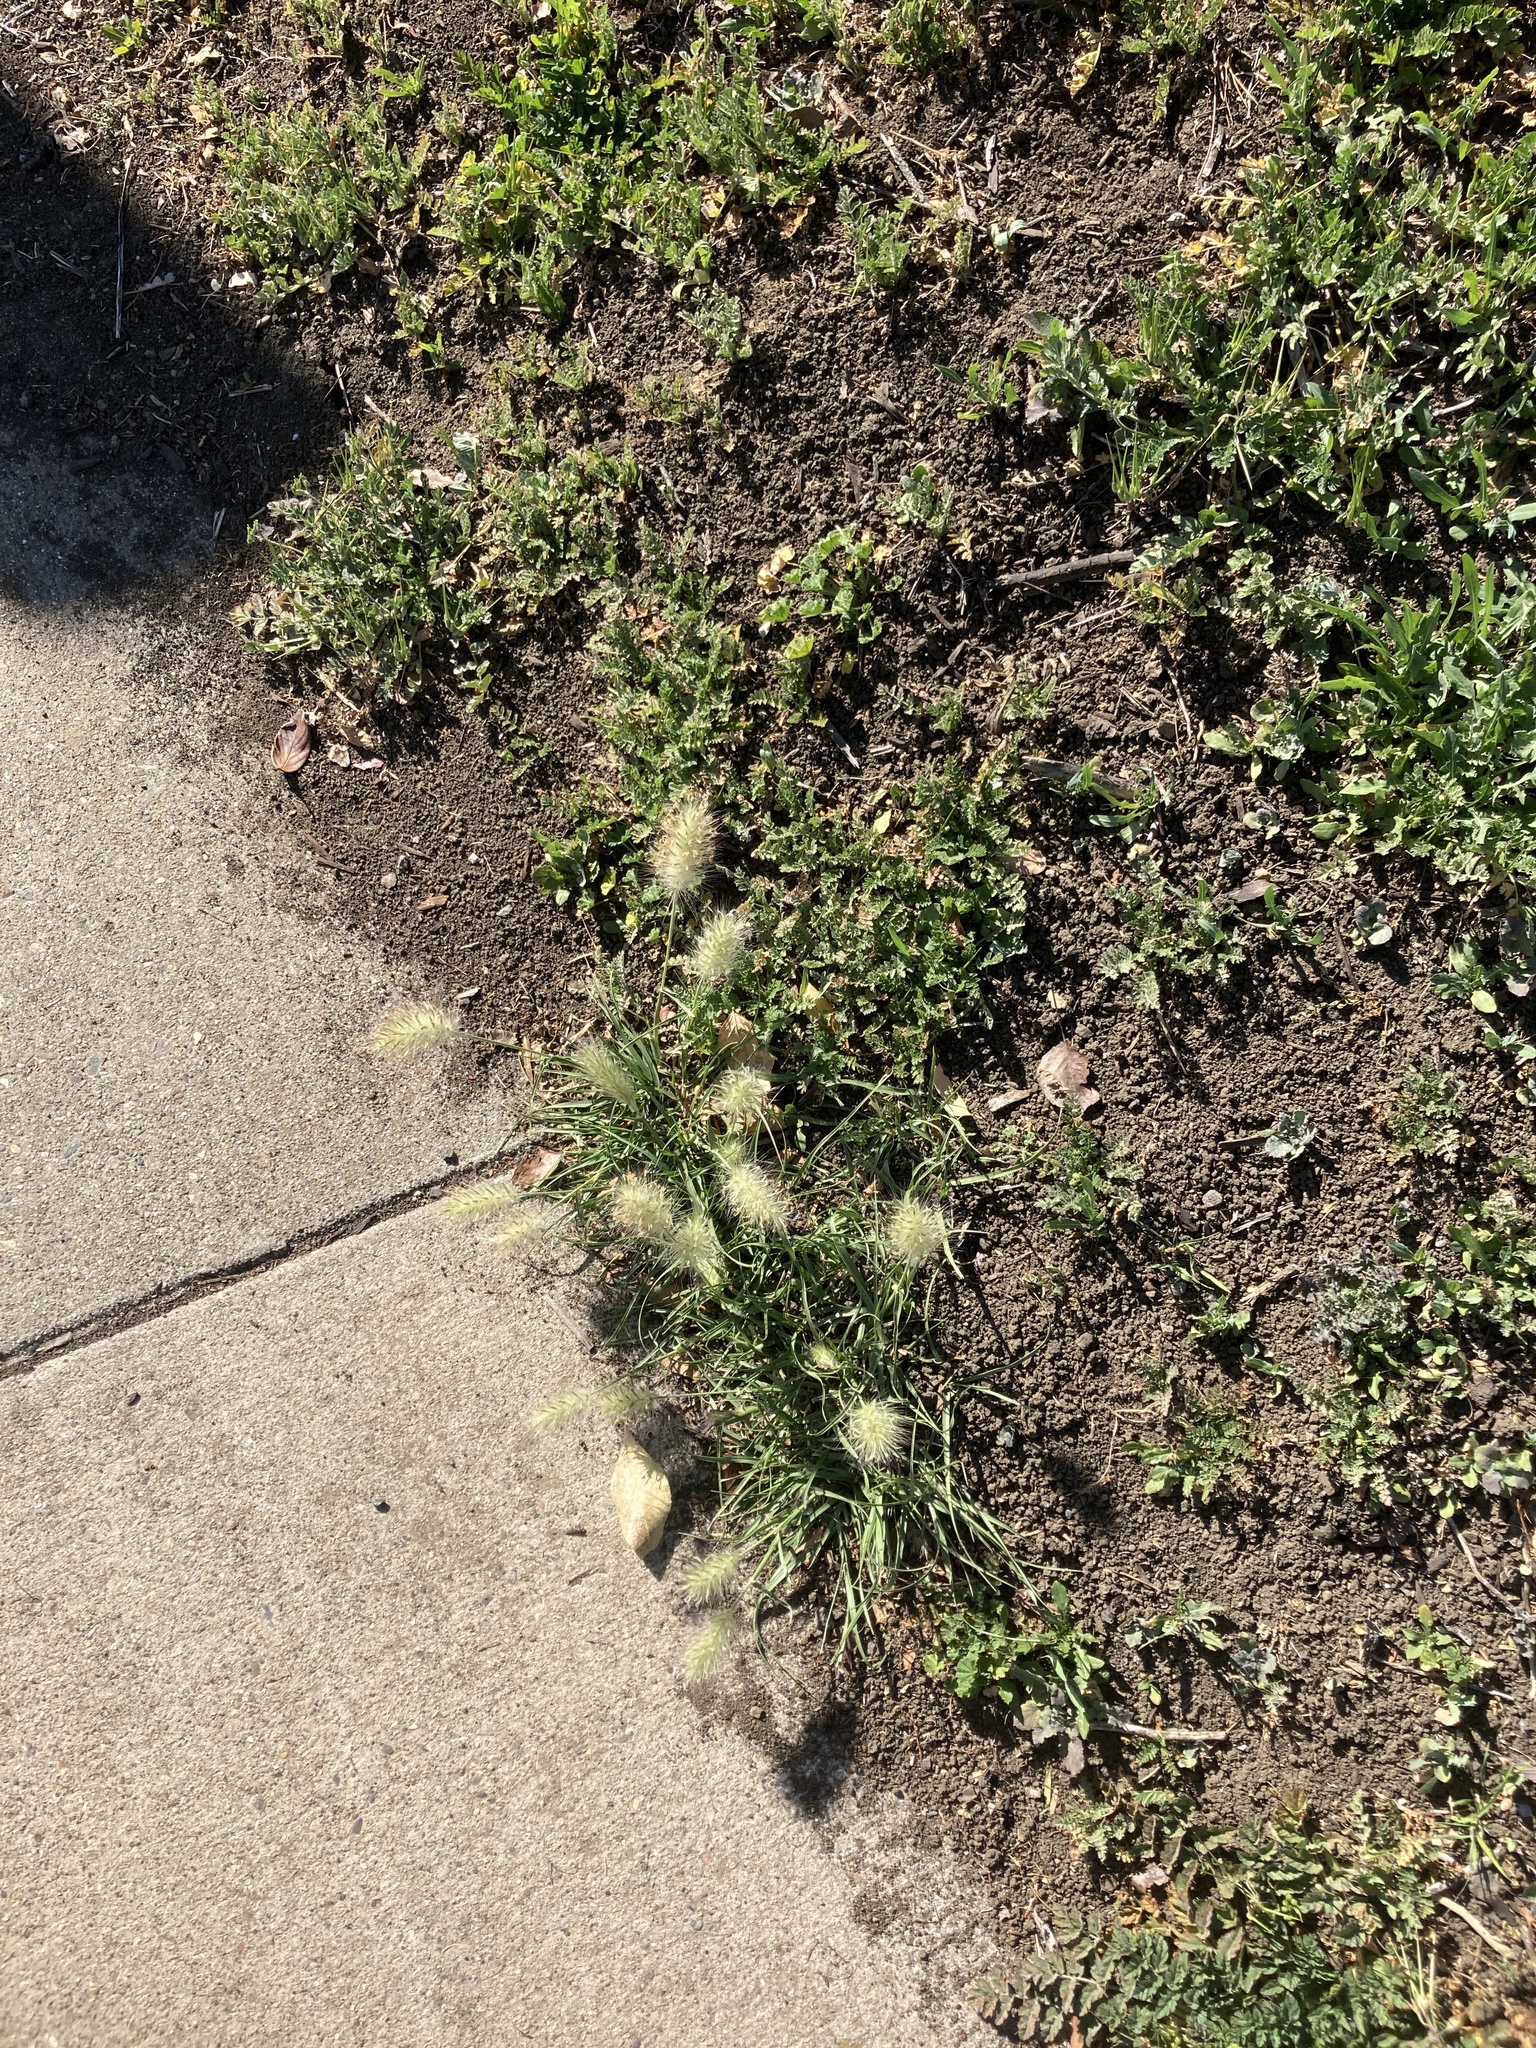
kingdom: Plantae
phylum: Tracheophyta
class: Liliopsida
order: Poales
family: Poaceae
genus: Cenchrus
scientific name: Cenchrus longisetus
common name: Feathertop
